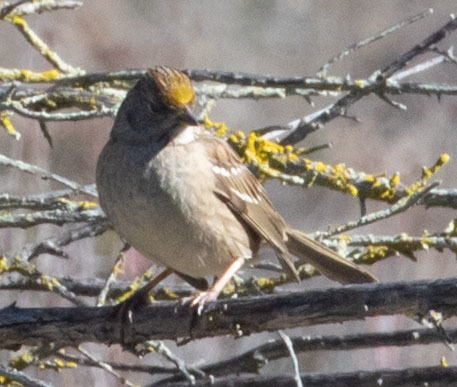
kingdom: Animalia
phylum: Chordata
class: Aves
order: Passeriformes
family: Passerellidae
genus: Zonotrichia
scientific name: Zonotrichia atricapilla
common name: Golden-crowned sparrow
